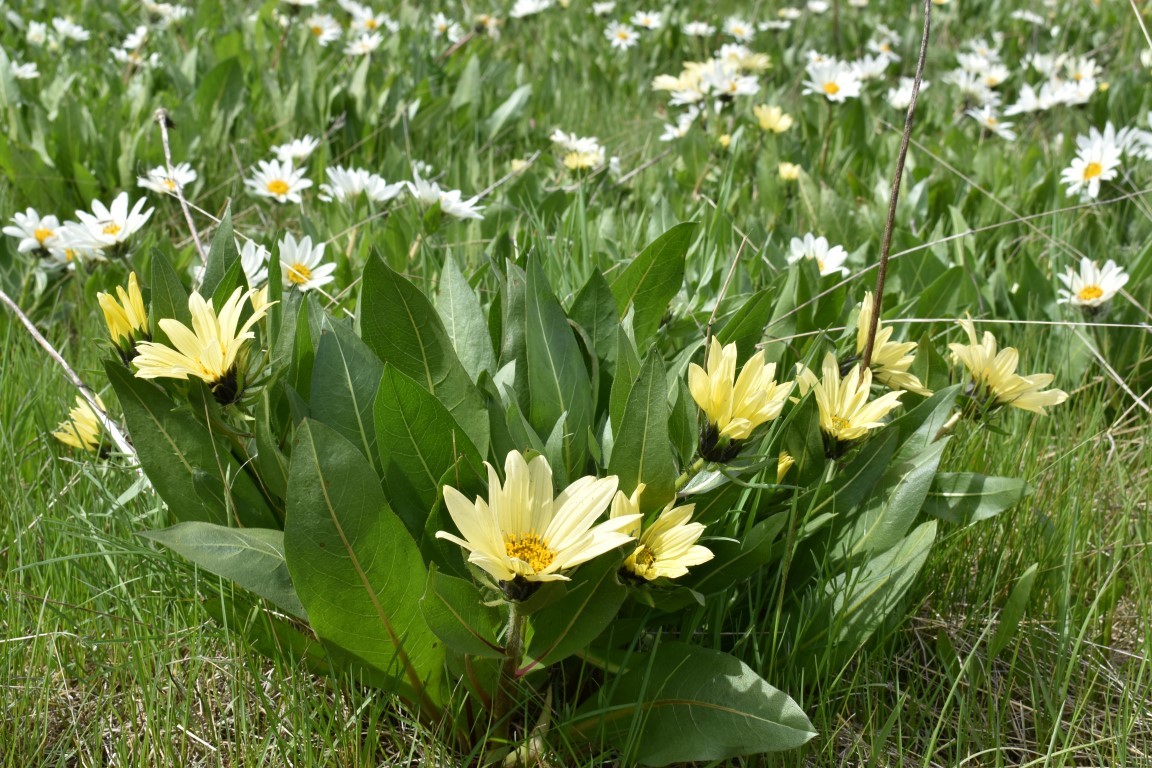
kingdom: Plantae
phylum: Tracheophyta
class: Magnoliopsida
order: Asterales
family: Asteraceae
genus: Wyethia
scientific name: Wyethia helianthoides
